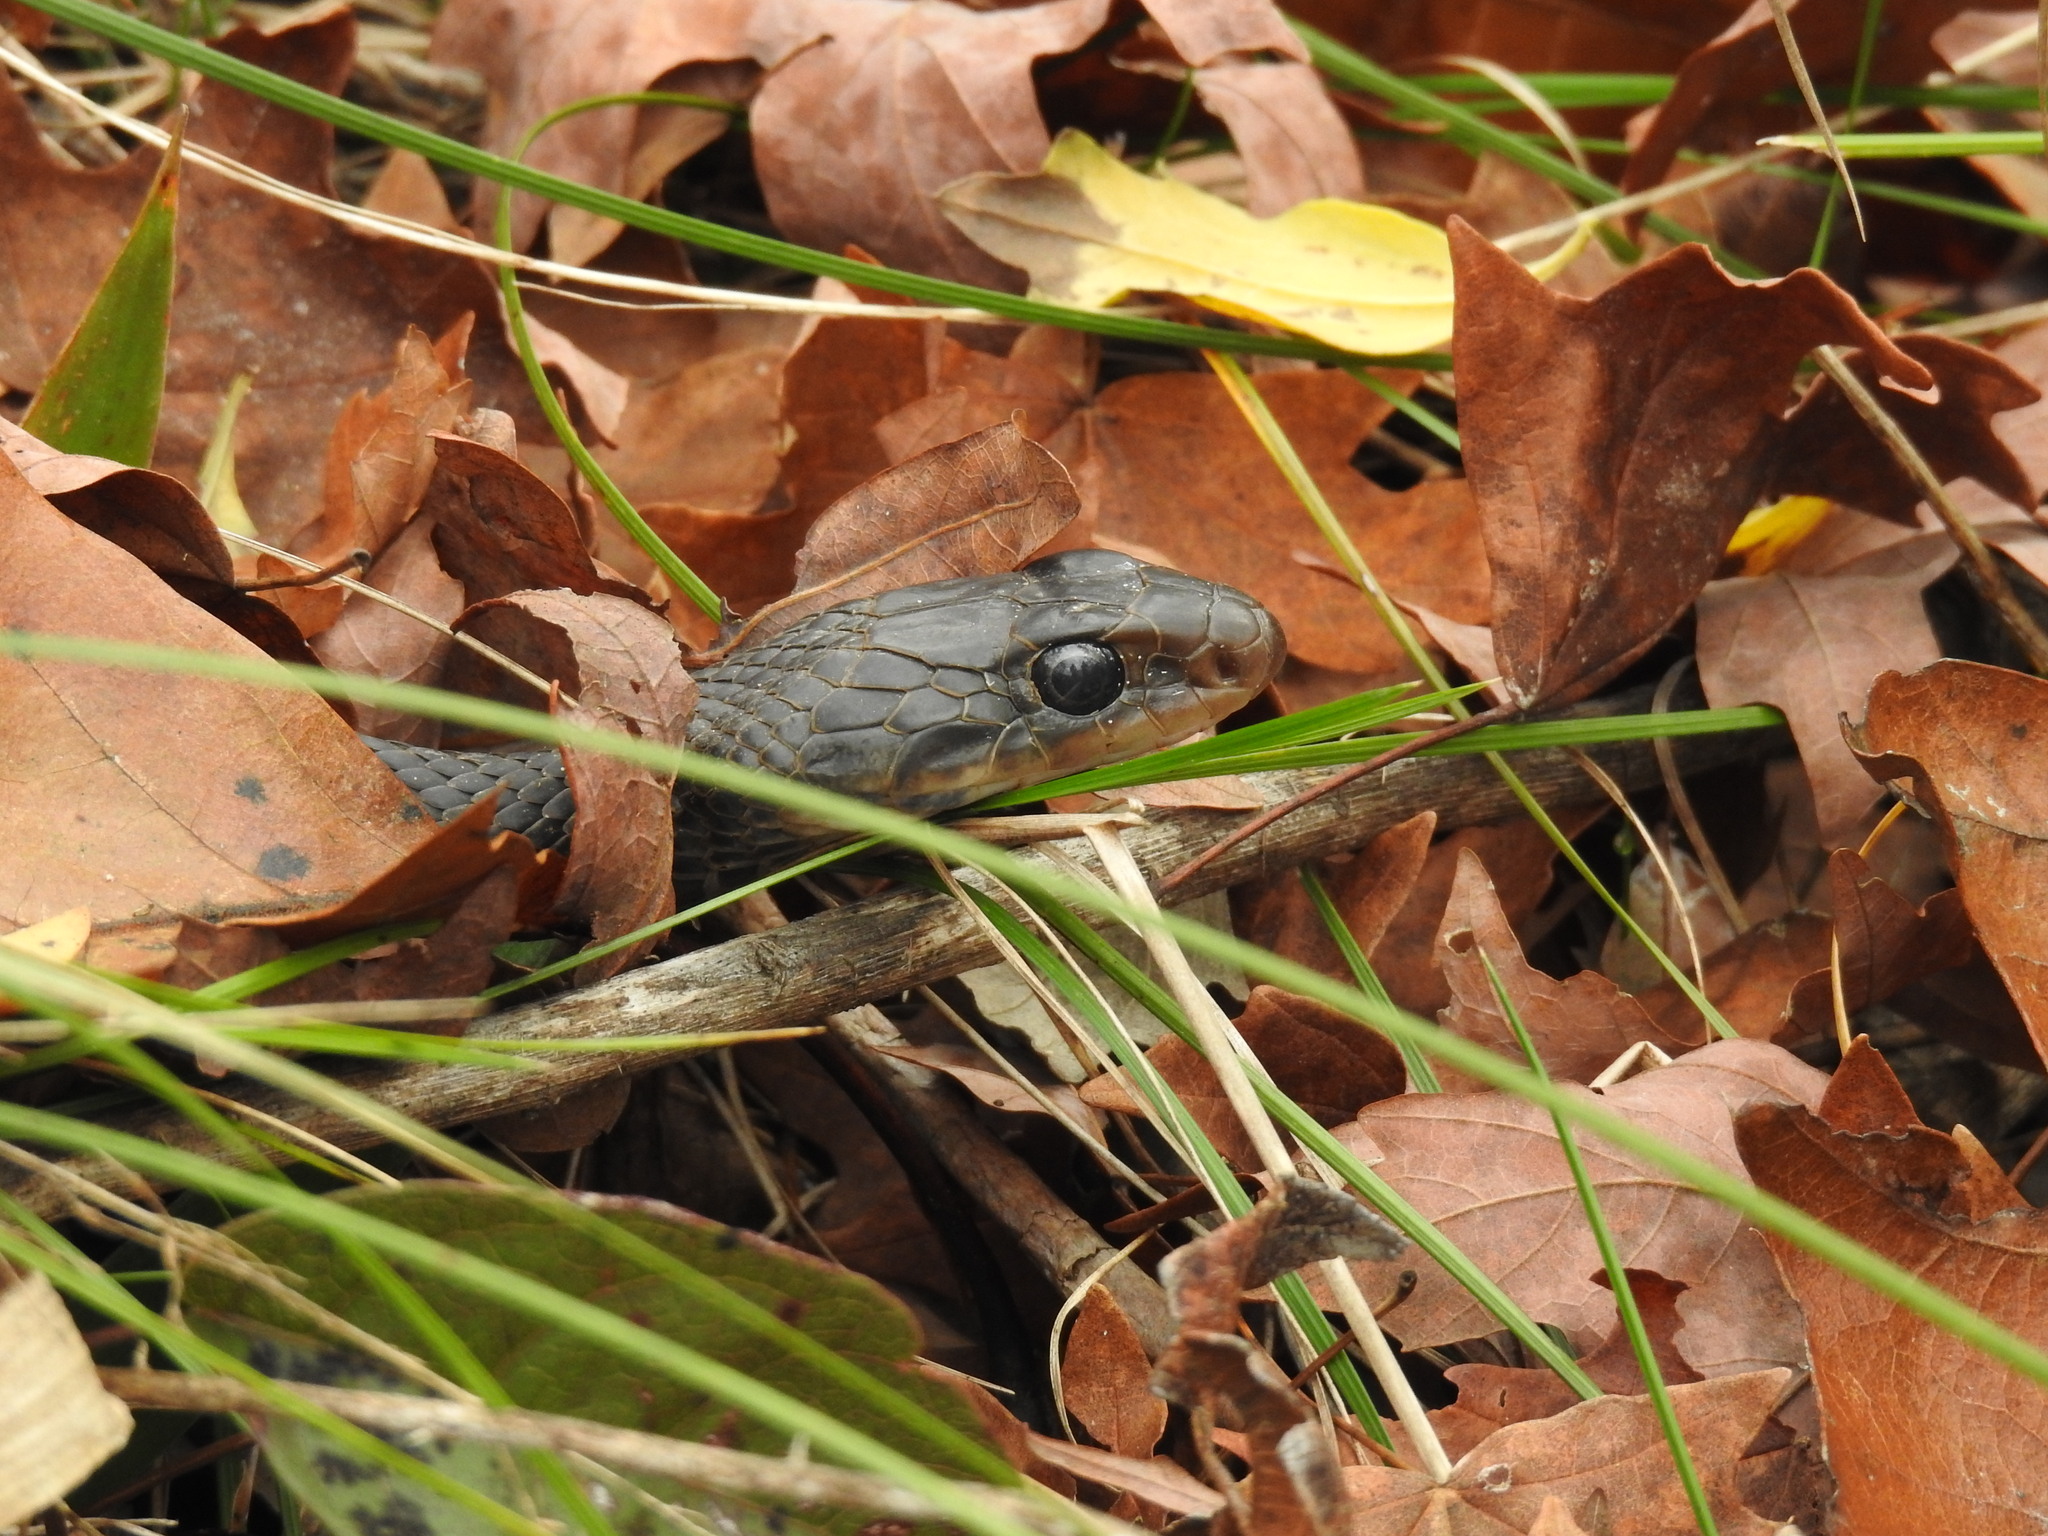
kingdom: Animalia
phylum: Chordata
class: Squamata
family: Colubridae
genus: Coluber
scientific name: Coluber constrictor
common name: Eastern racer
